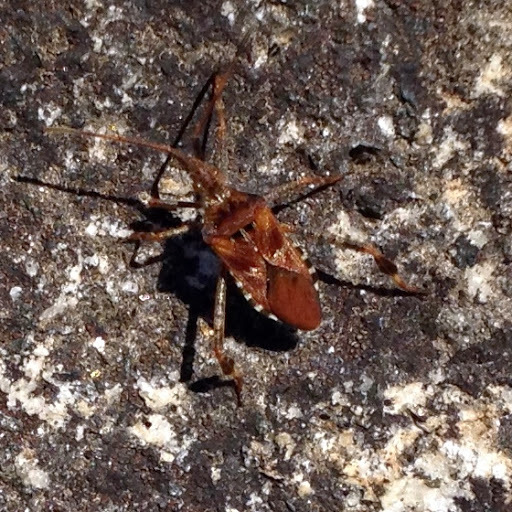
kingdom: Animalia
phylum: Arthropoda
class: Insecta
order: Hemiptera
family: Coreidae
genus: Leptoglossus
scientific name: Leptoglossus occidentalis
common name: Western conifer-seed bug
